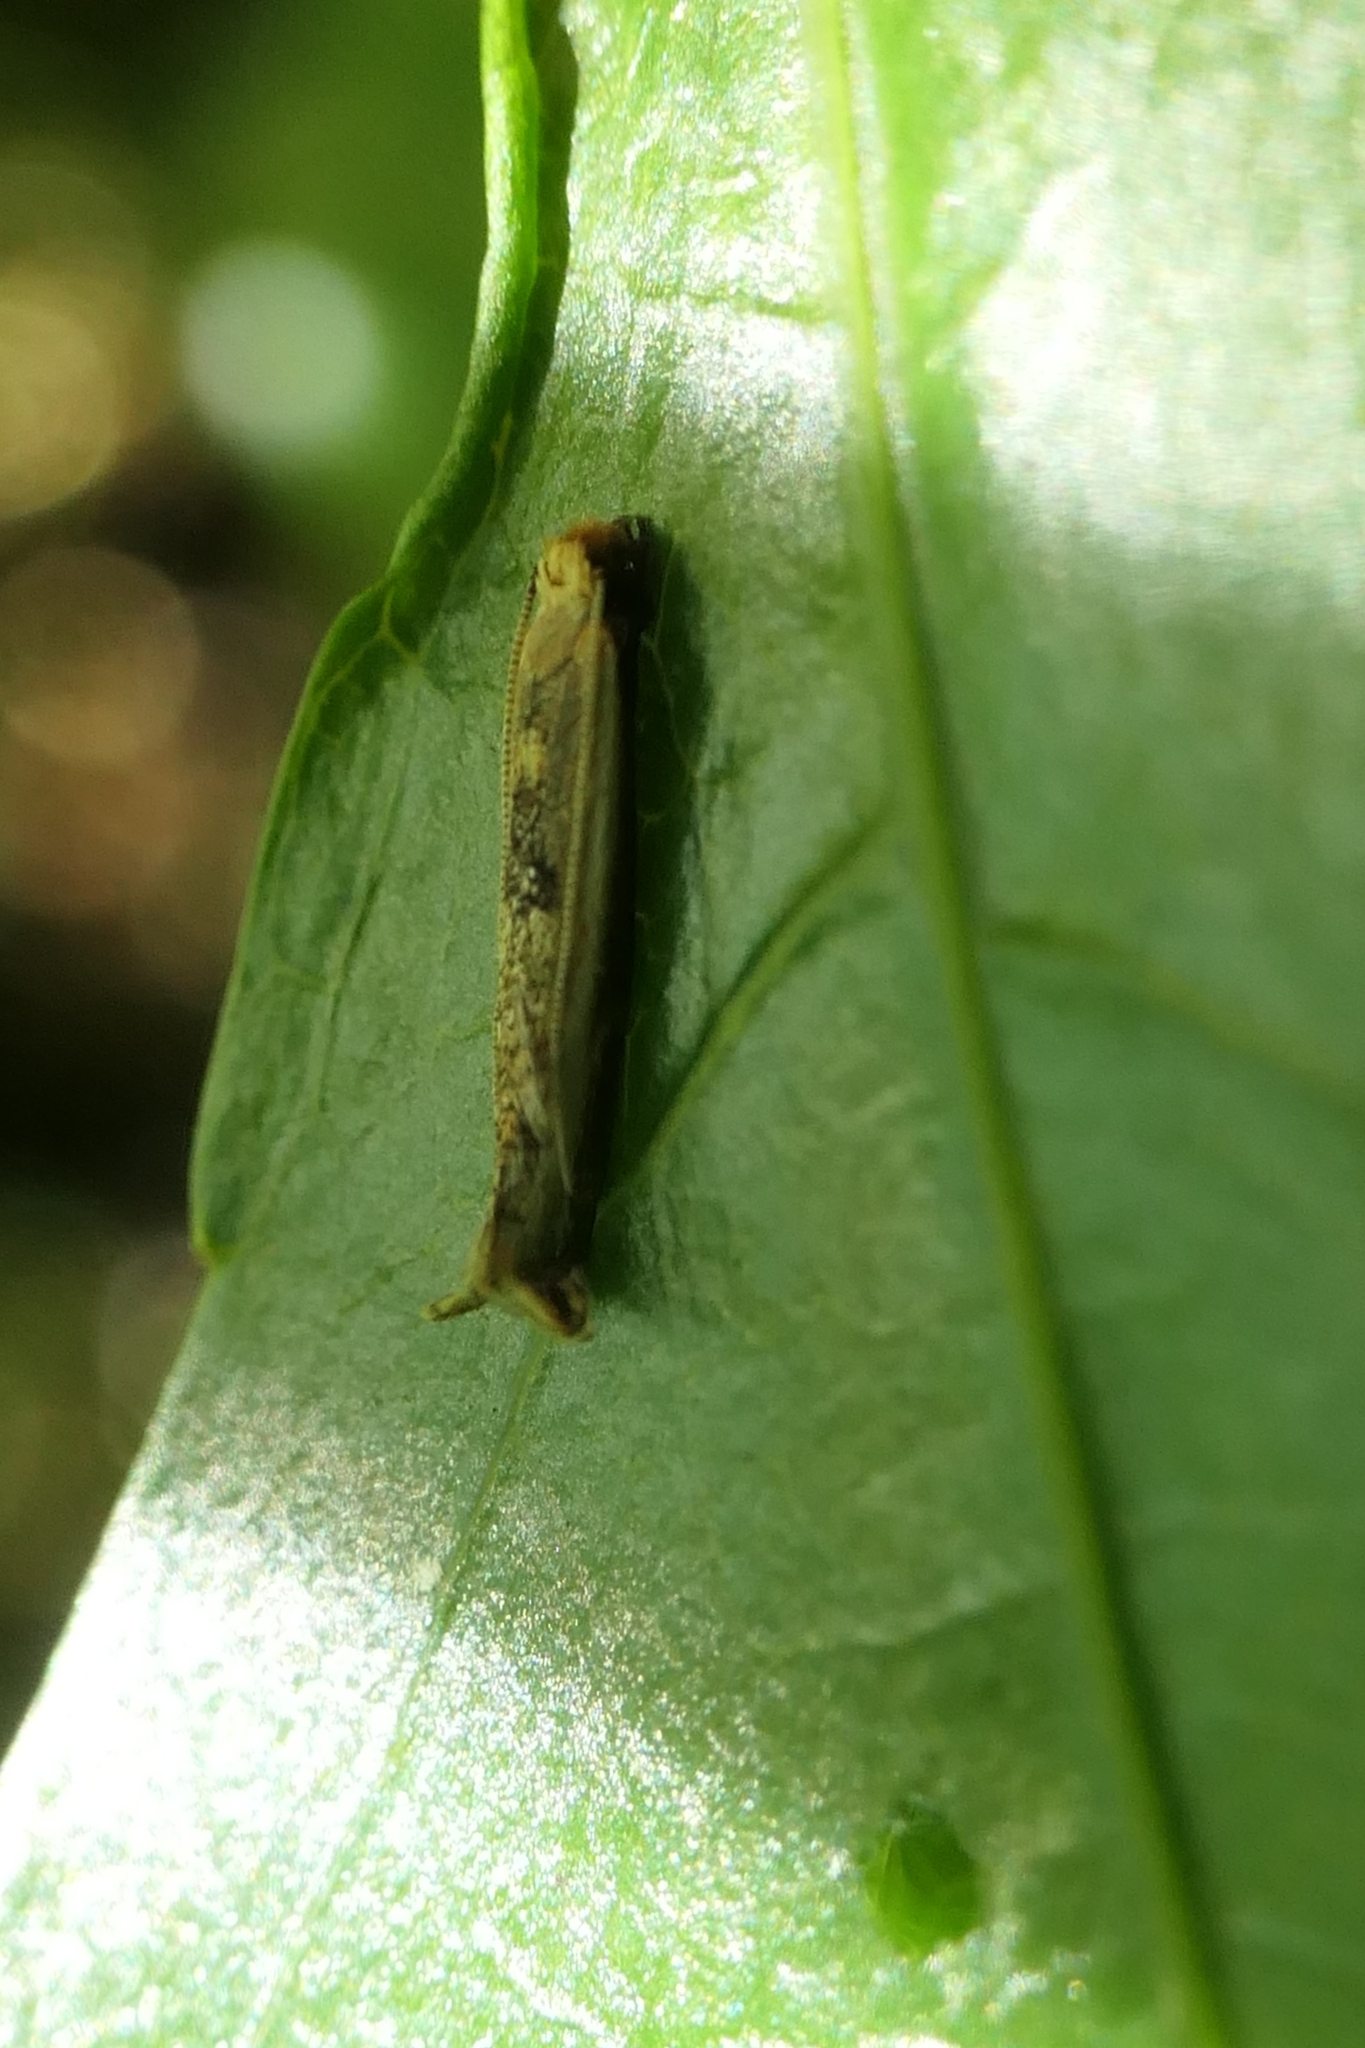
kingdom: Animalia
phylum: Arthropoda
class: Insecta
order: Lepidoptera
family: Tineidae
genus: Erechthias
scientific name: Erechthias charadrota
